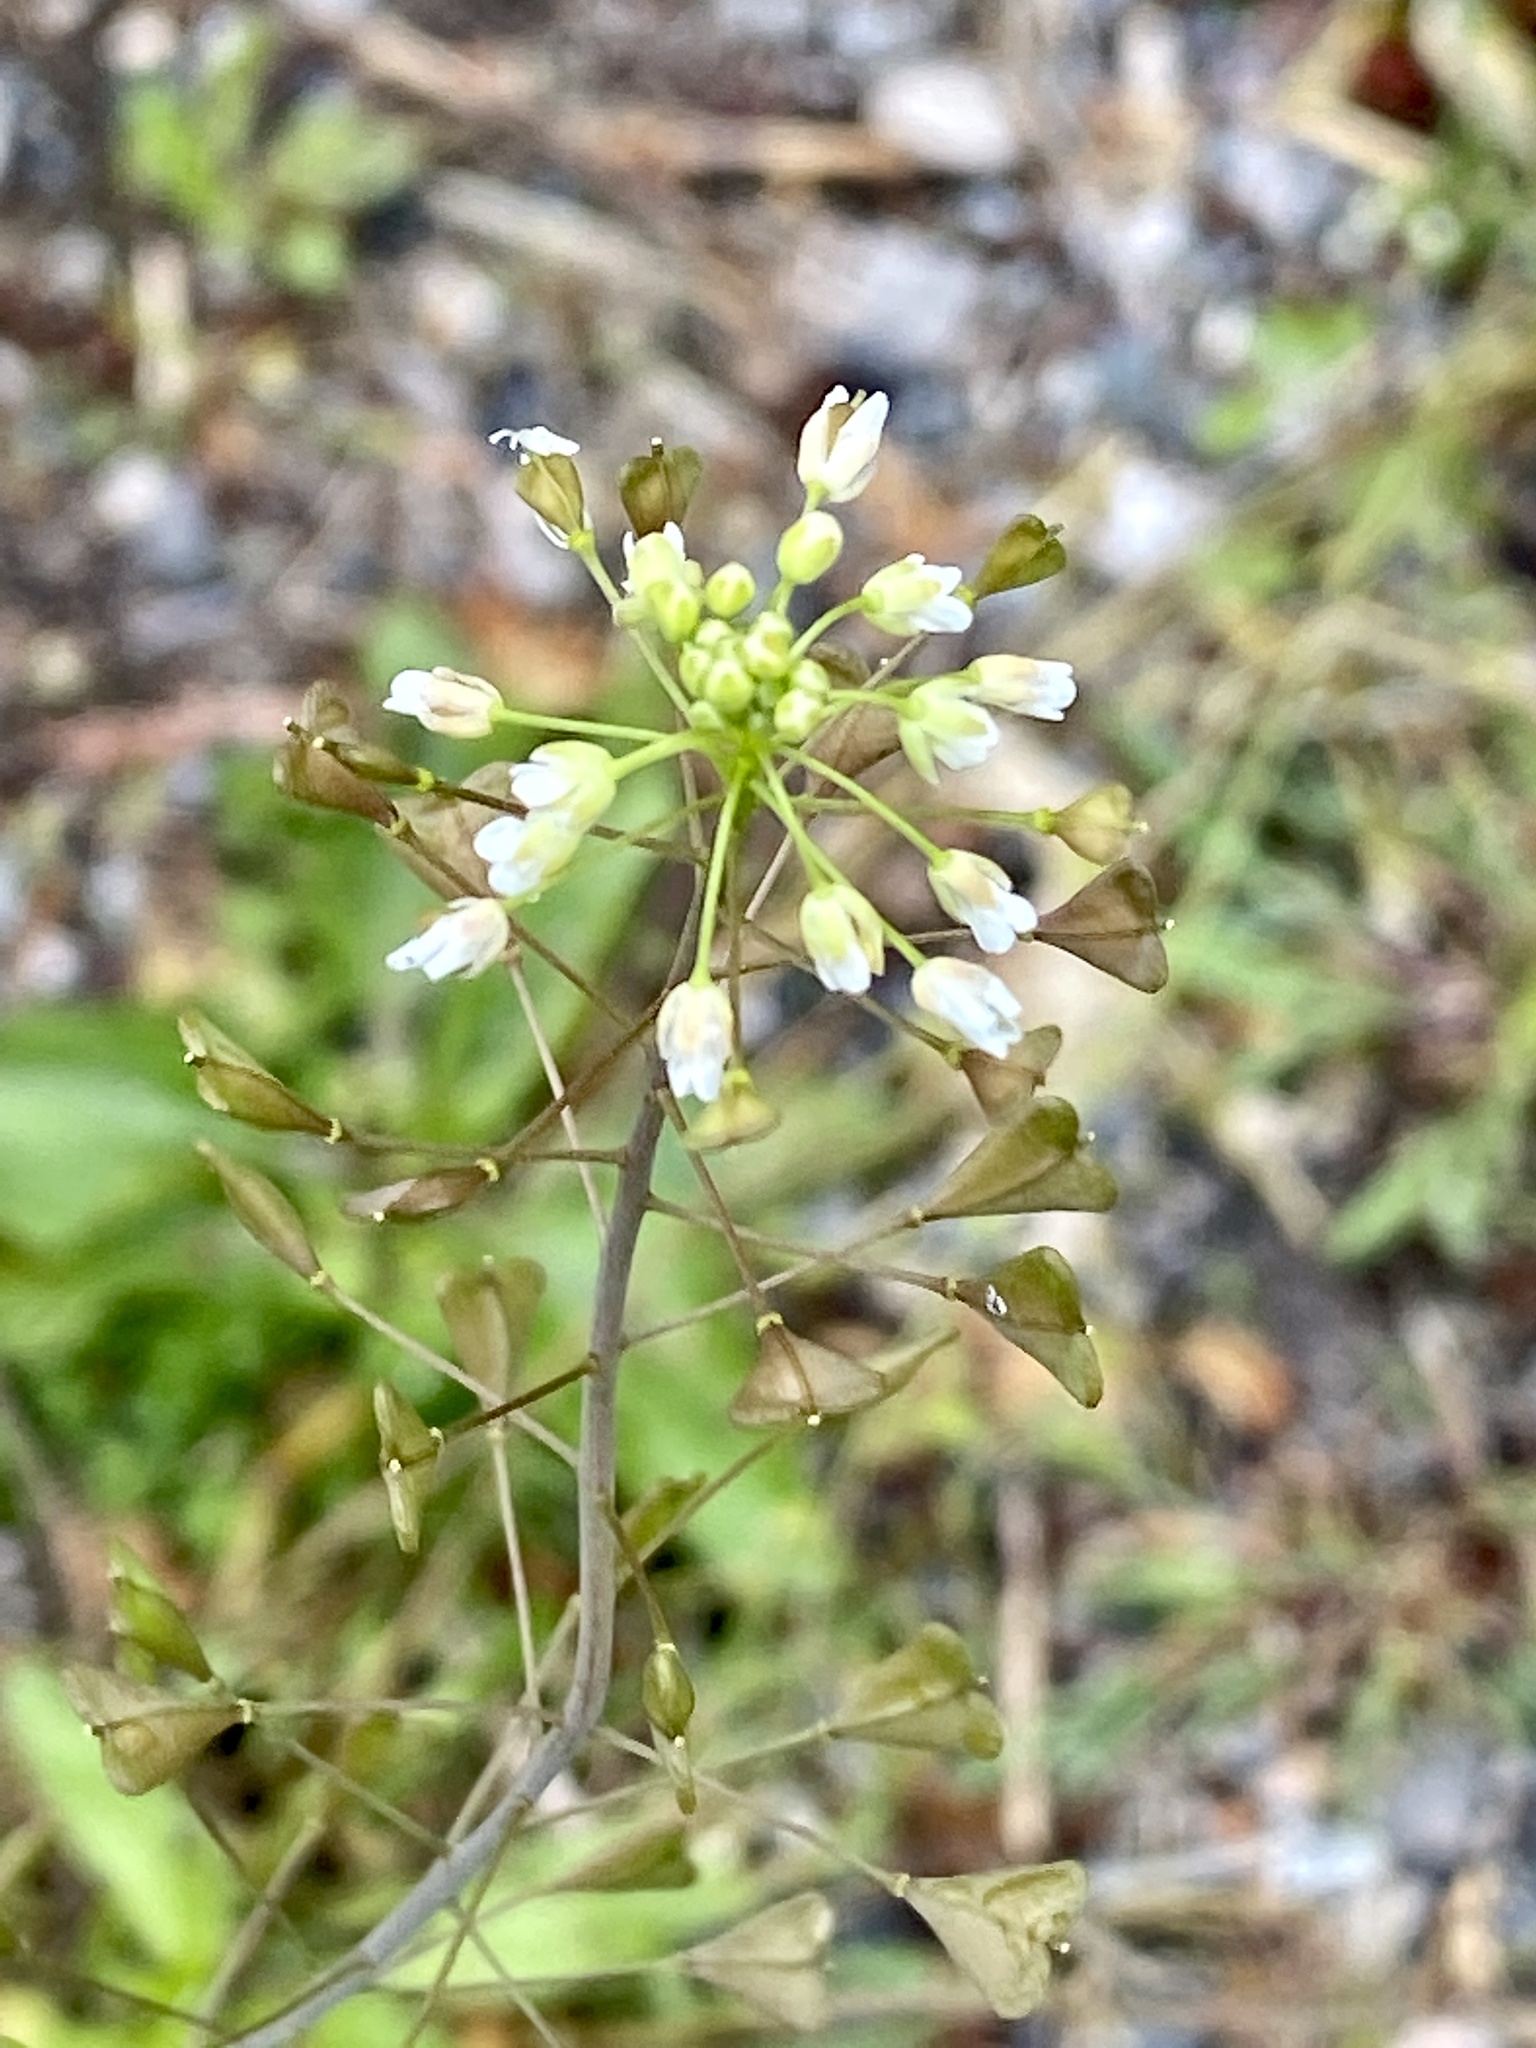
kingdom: Plantae
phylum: Tracheophyta
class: Magnoliopsida
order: Brassicales
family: Brassicaceae
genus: Capsella
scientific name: Capsella bursa-pastoris
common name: Shepherd's purse
